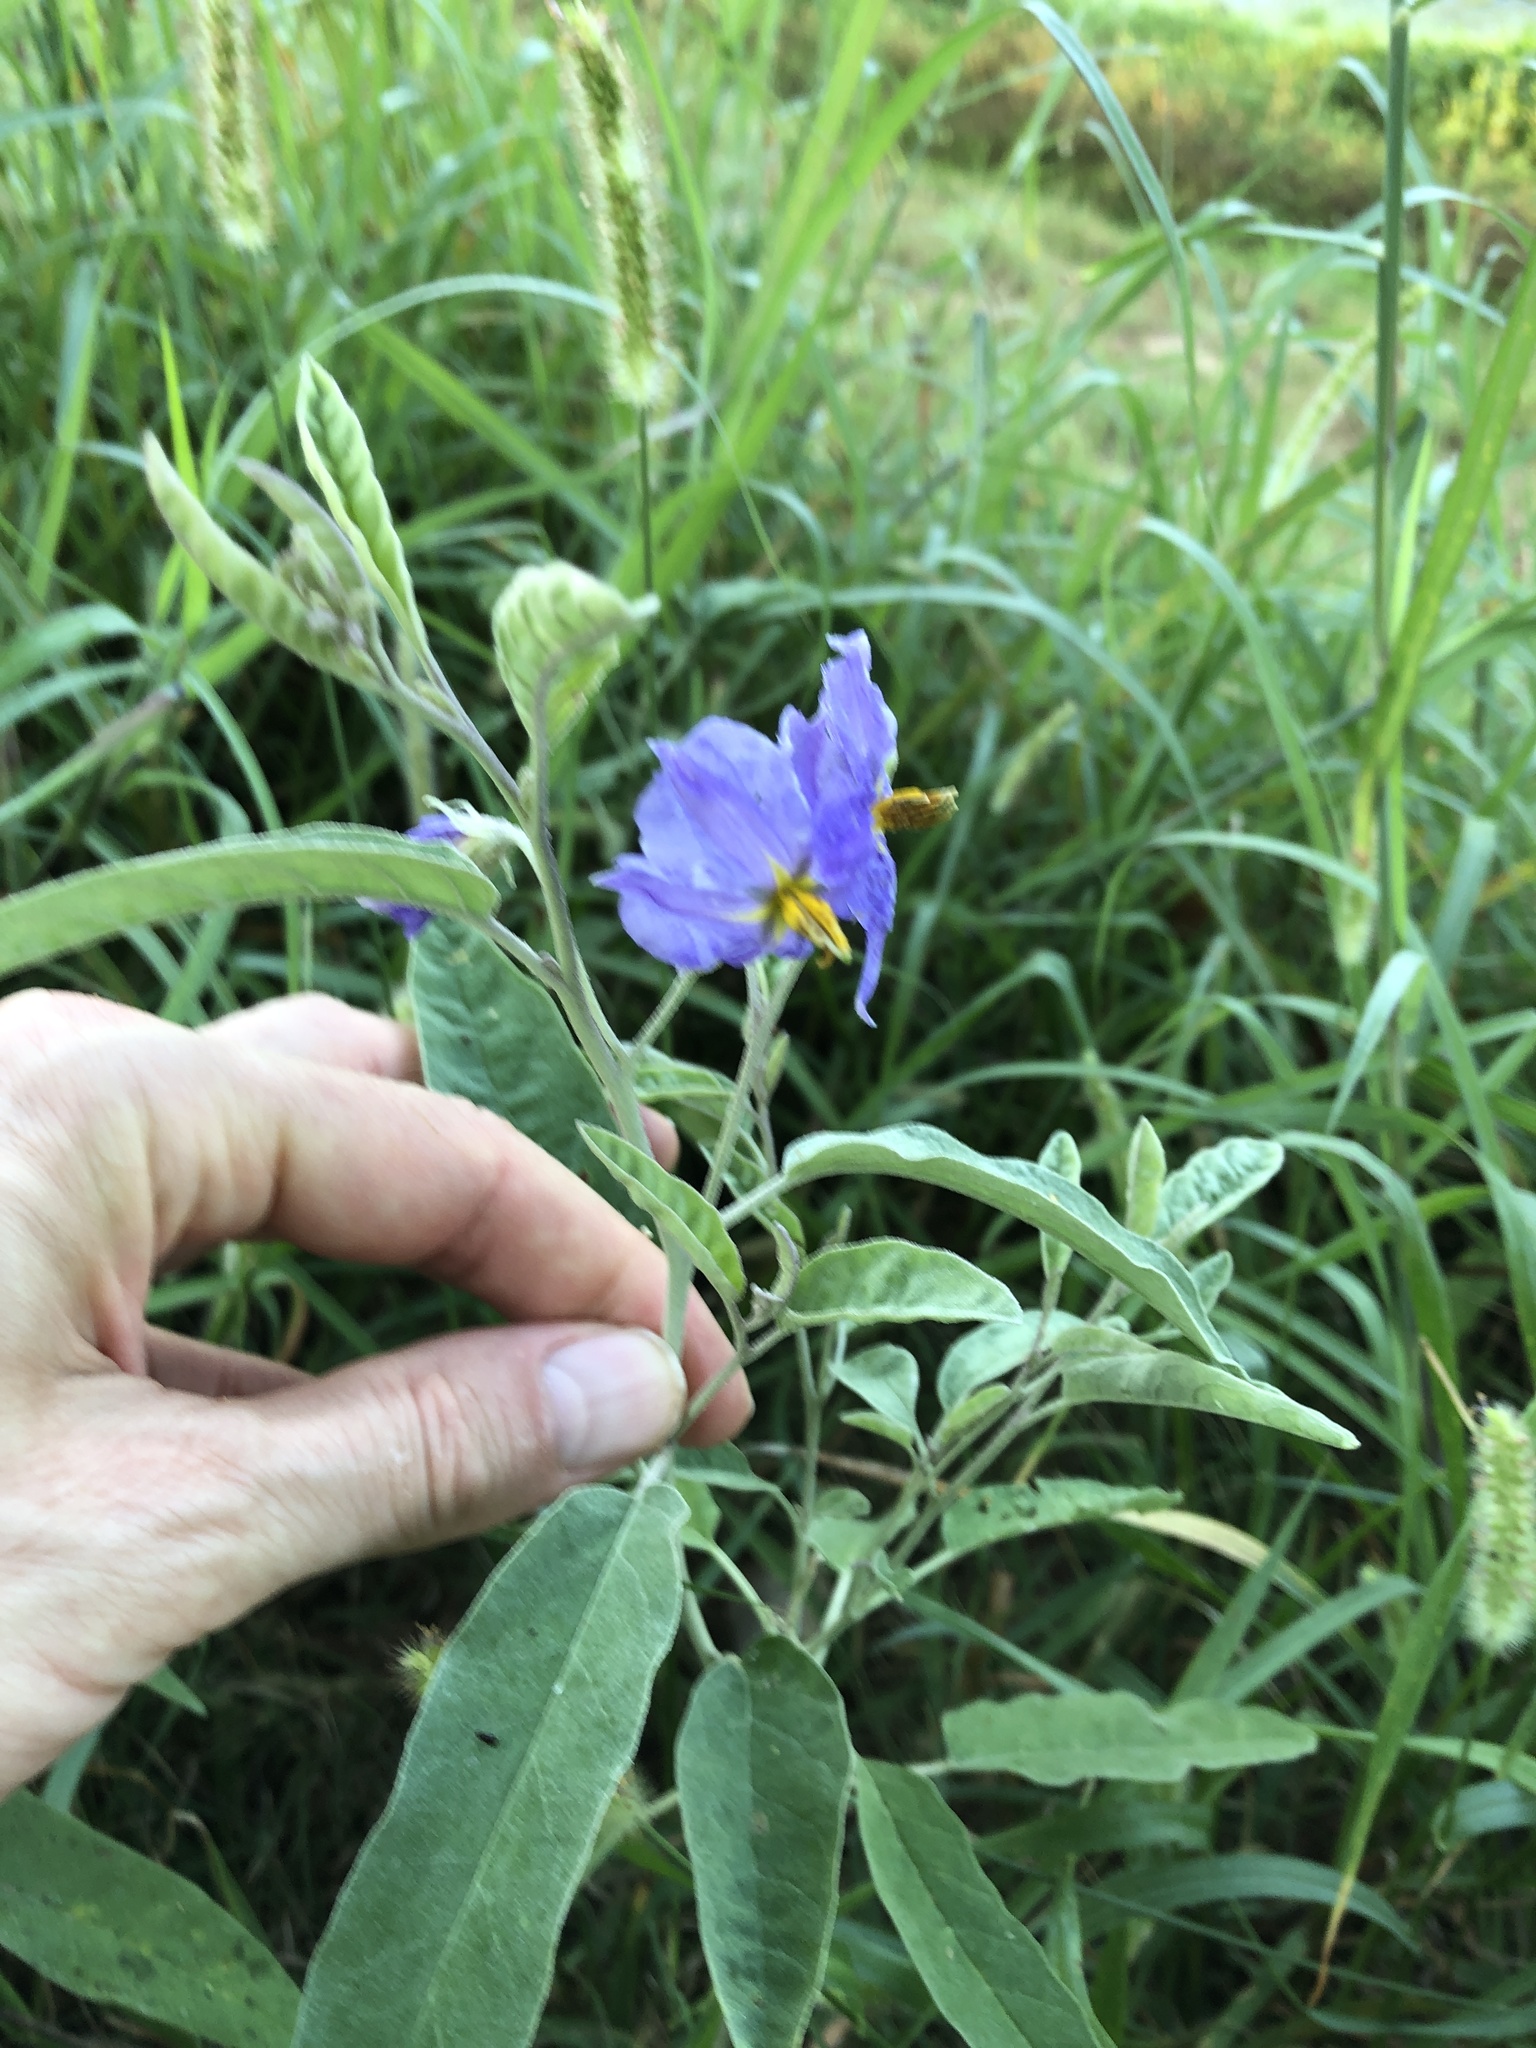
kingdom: Plantae
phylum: Tracheophyta
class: Magnoliopsida
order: Solanales
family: Solanaceae
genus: Solanum
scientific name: Solanum elaeagnifolium
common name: Silverleaf nightshade
